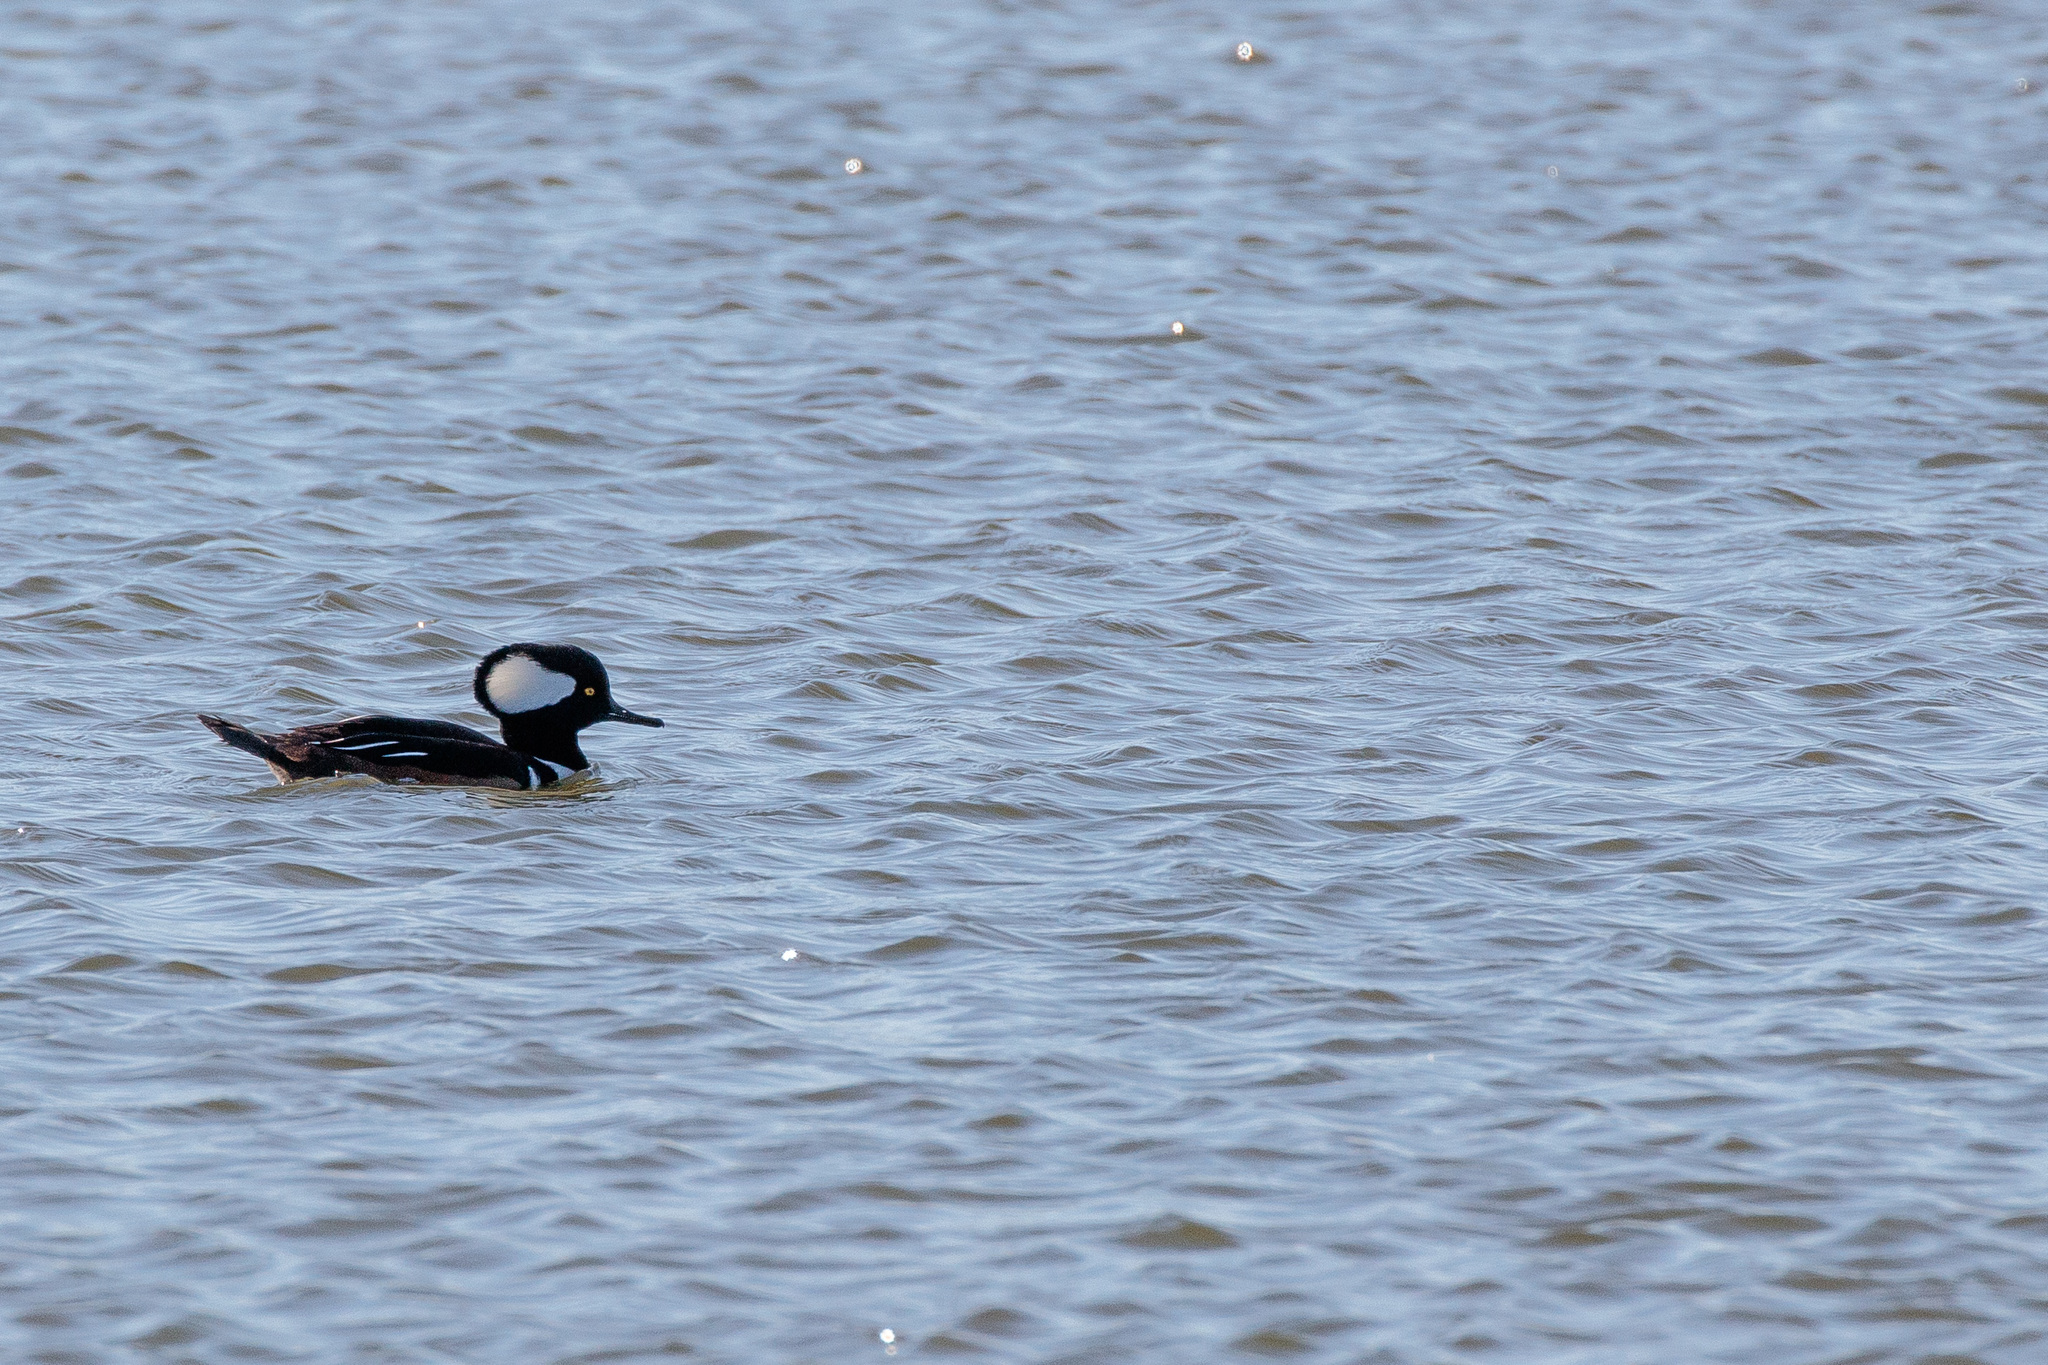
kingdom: Animalia
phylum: Chordata
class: Aves
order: Anseriformes
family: Anatidae
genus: Lophodytes
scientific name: Lophodytes cucullatus
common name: Hooded merganser
